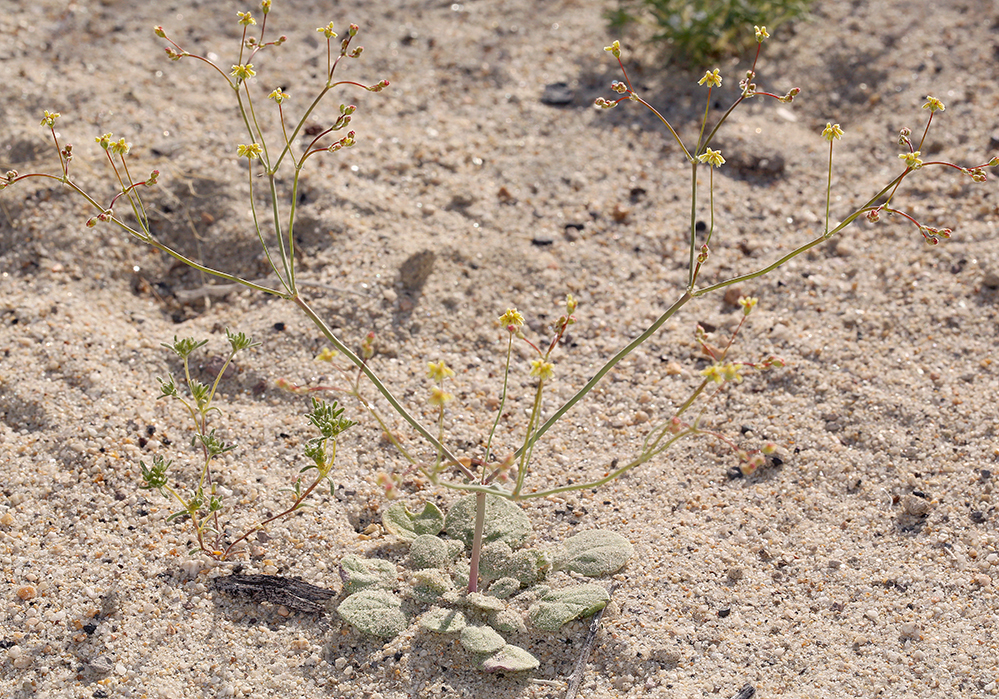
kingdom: Plantae
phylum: Tracheophyta
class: Magnoliopsida
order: Caryophyllales
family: Polygonaceae
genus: Eriogonum
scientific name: Eriogonum pusillum
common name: Yellow turbans
